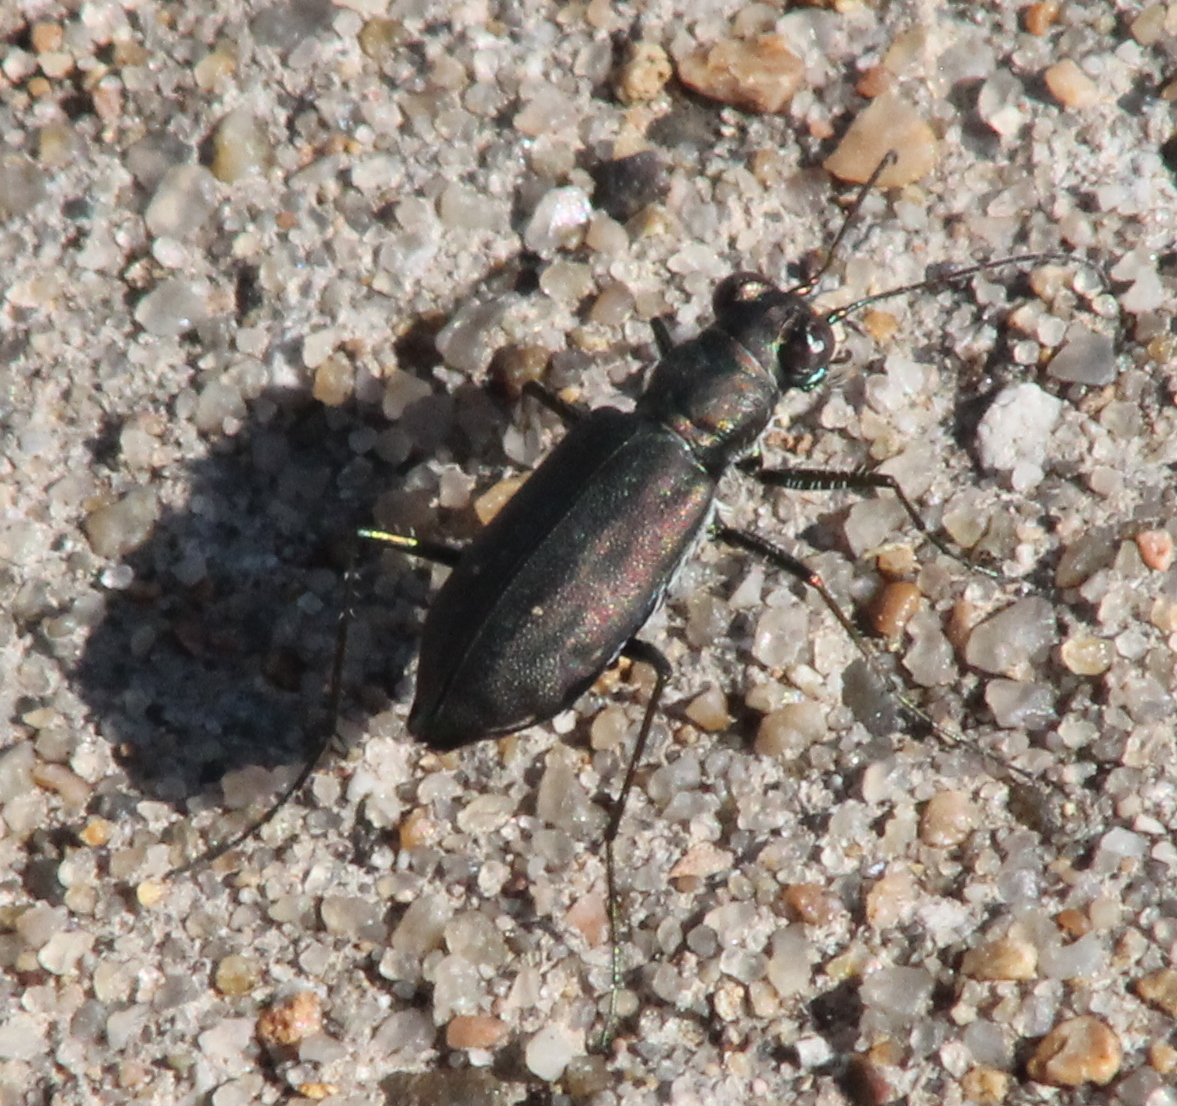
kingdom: Animalia
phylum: Arthropoda
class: Insecta
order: Coleoptera
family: Carabidae
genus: Cicindela
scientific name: Cicindela punctulata
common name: Punctured tiger beetle
